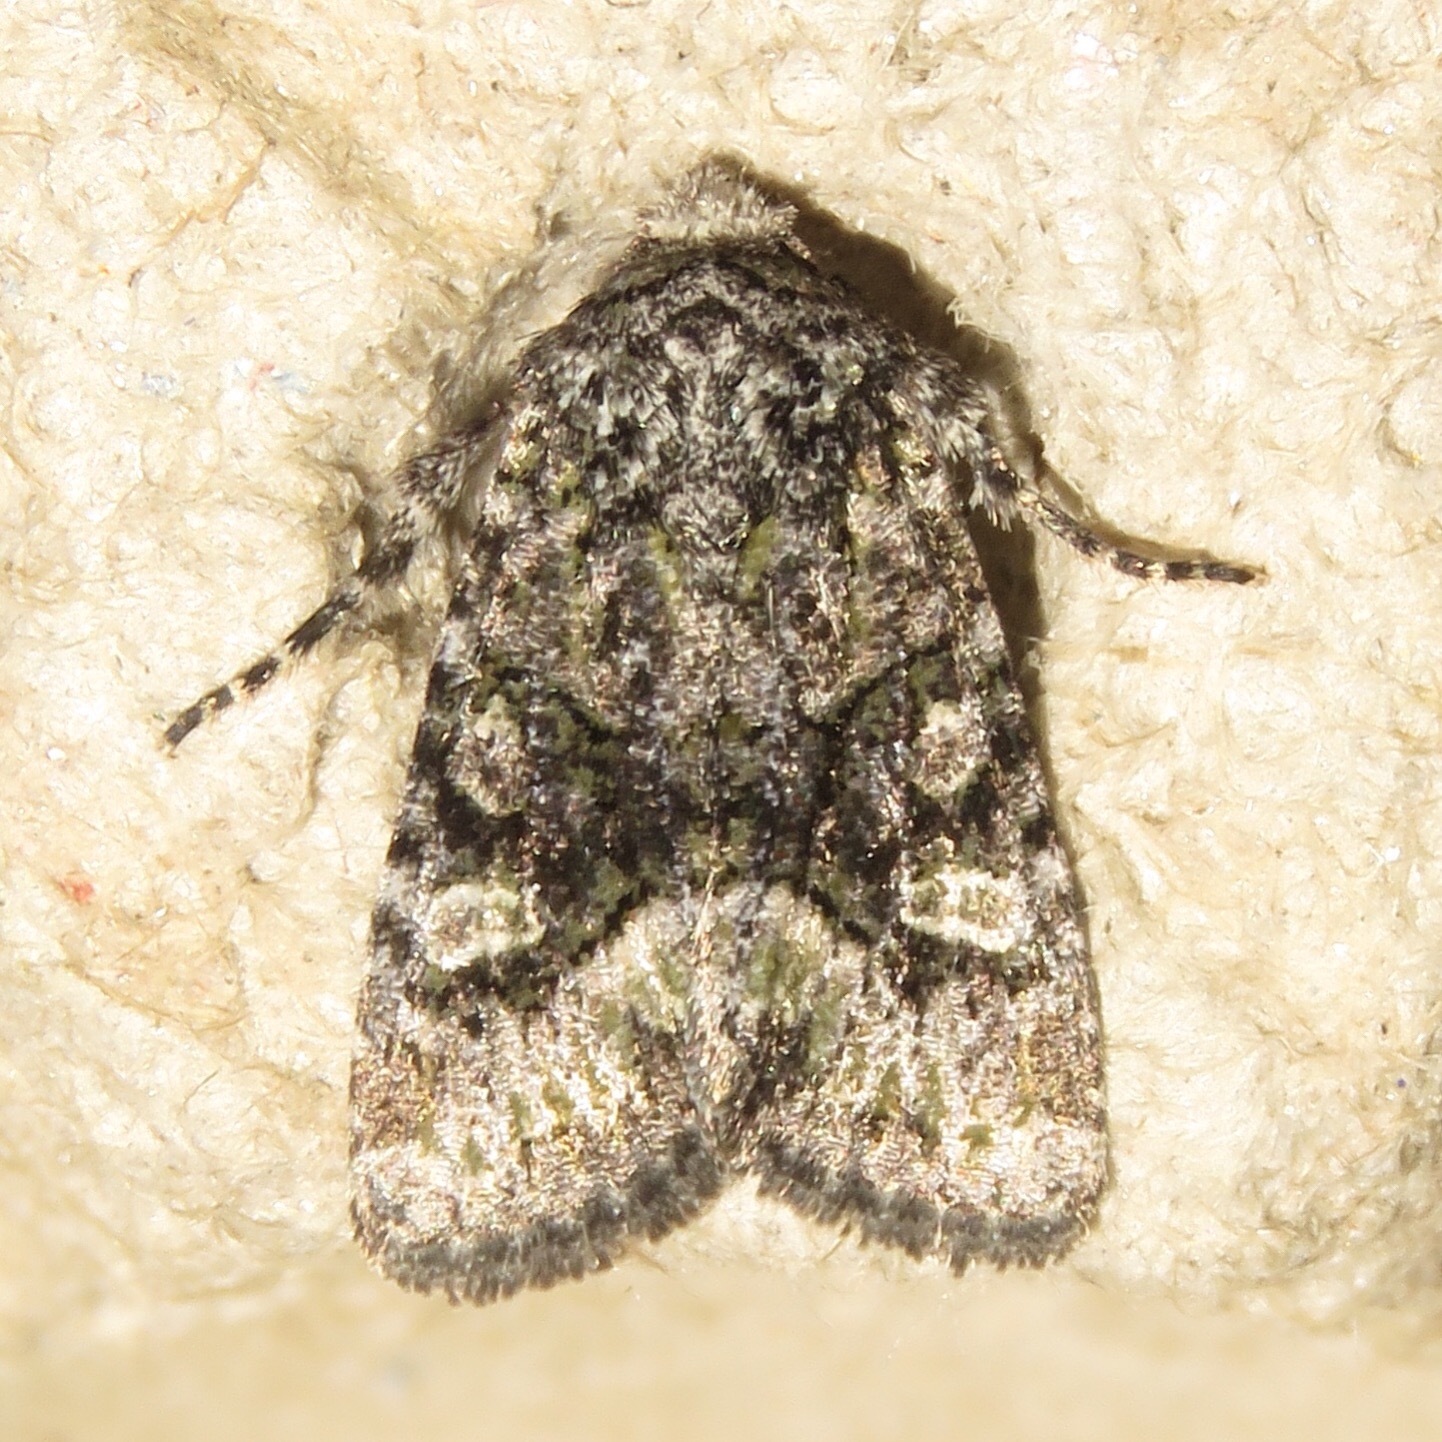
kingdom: Animalia
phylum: Arthropoda
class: Insecta
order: Lepidoptera
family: Noctuidae
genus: Lacinipolia
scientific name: Lacinipolia olivacea
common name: Olive arches moth
